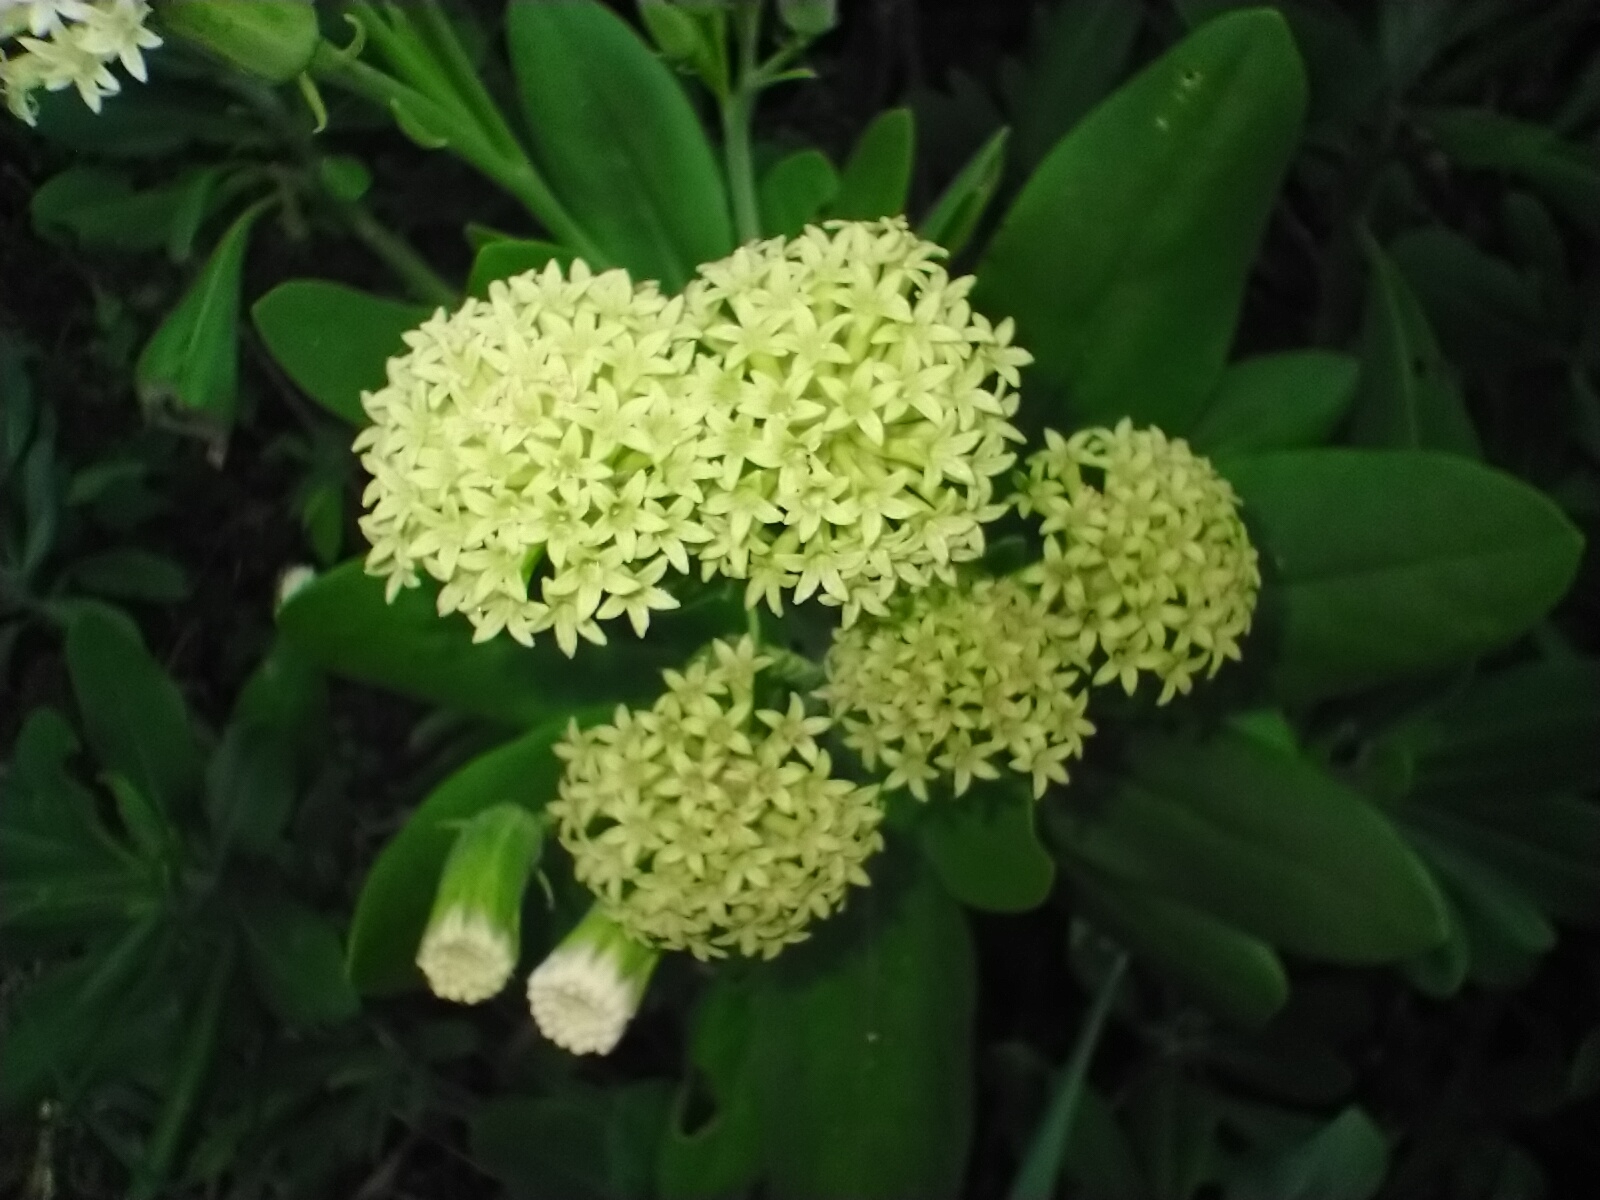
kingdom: Plantae
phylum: Tracheophyta
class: Magnoliopsida
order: Asterales
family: Asteraceae
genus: Kleinia
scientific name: Kleinia grandiflora
